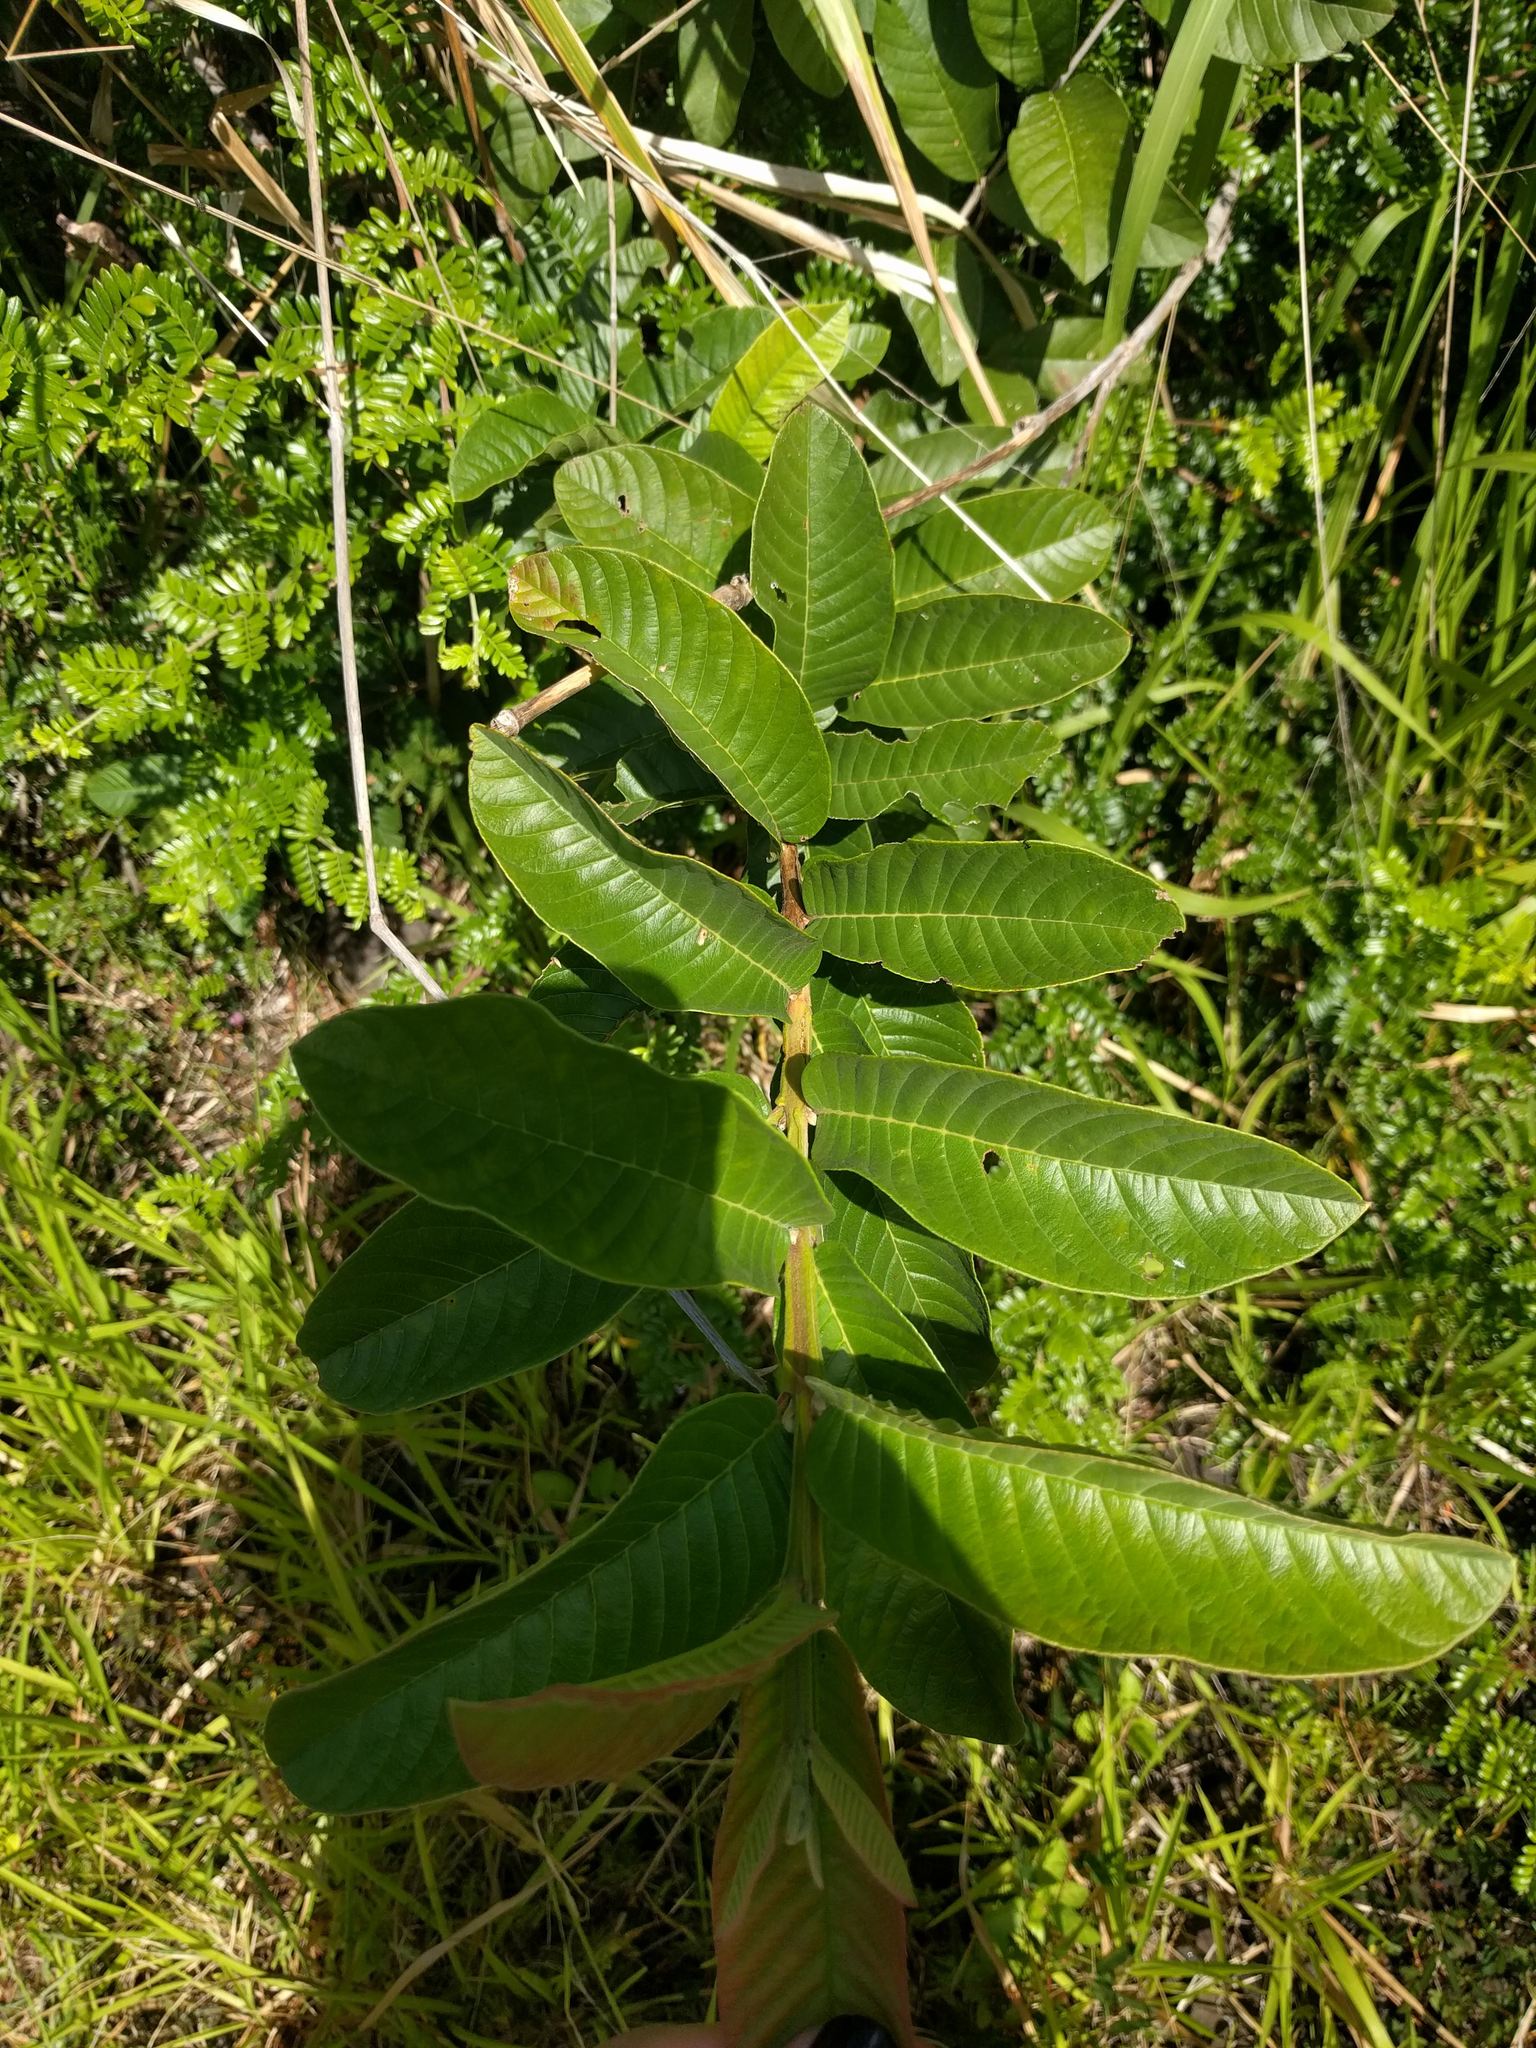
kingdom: Plantae
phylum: Tracheophyta
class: Magnoliopsida
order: Myrtales
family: Myrtaceae
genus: Psidium
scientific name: Psidium guajava
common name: Guava
